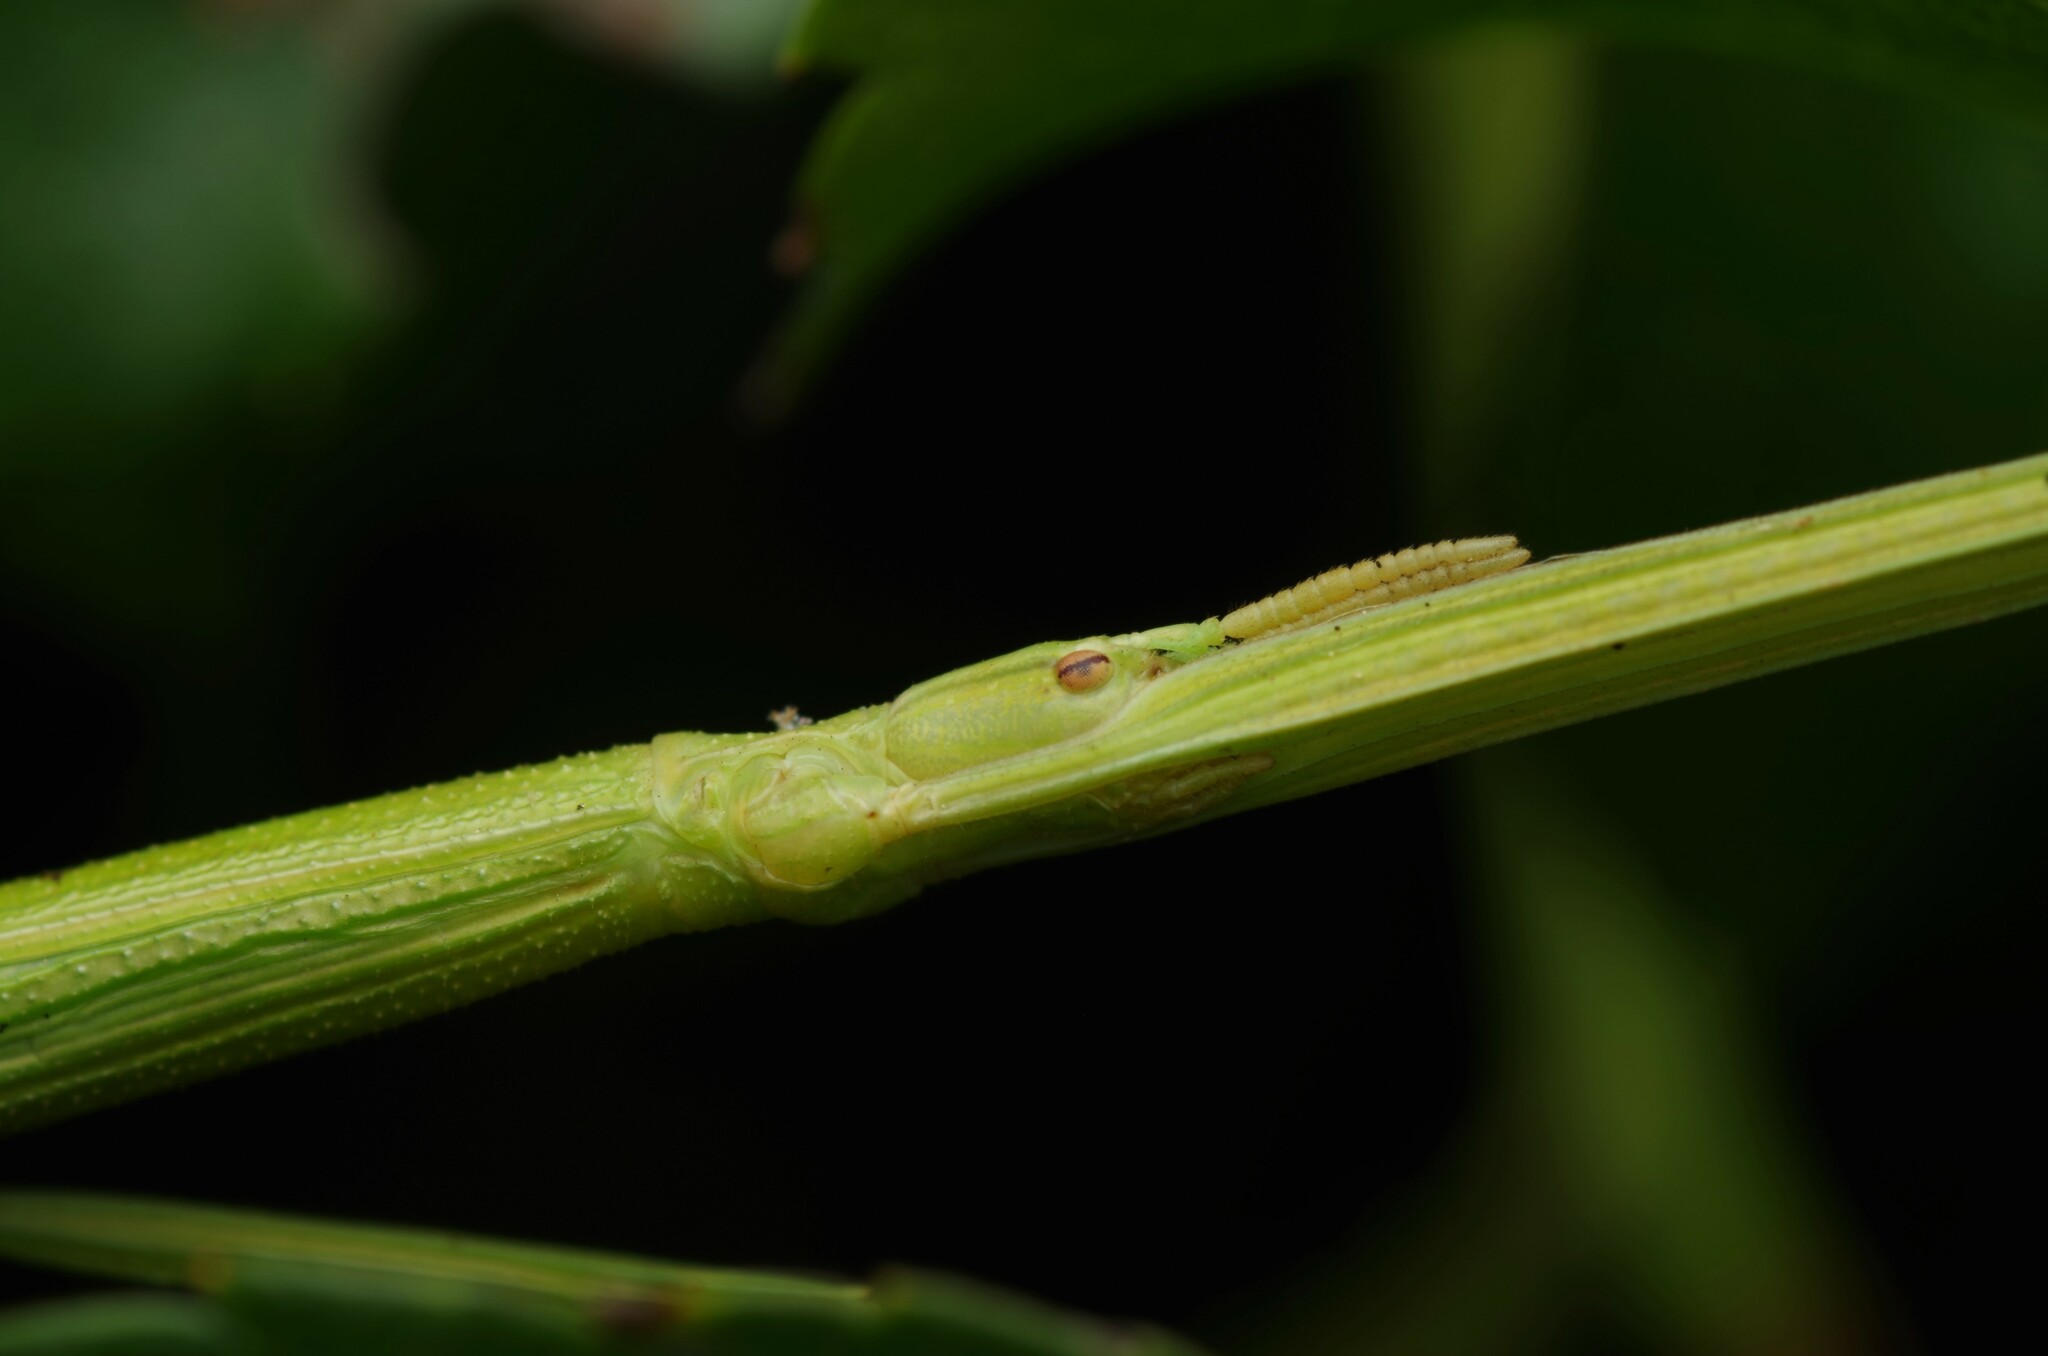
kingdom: Animalia
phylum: Arthropoda
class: Insecta
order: Phasmida
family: Bacillidae
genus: Clonopsis
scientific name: Clonopsis gallica
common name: French stick insect
